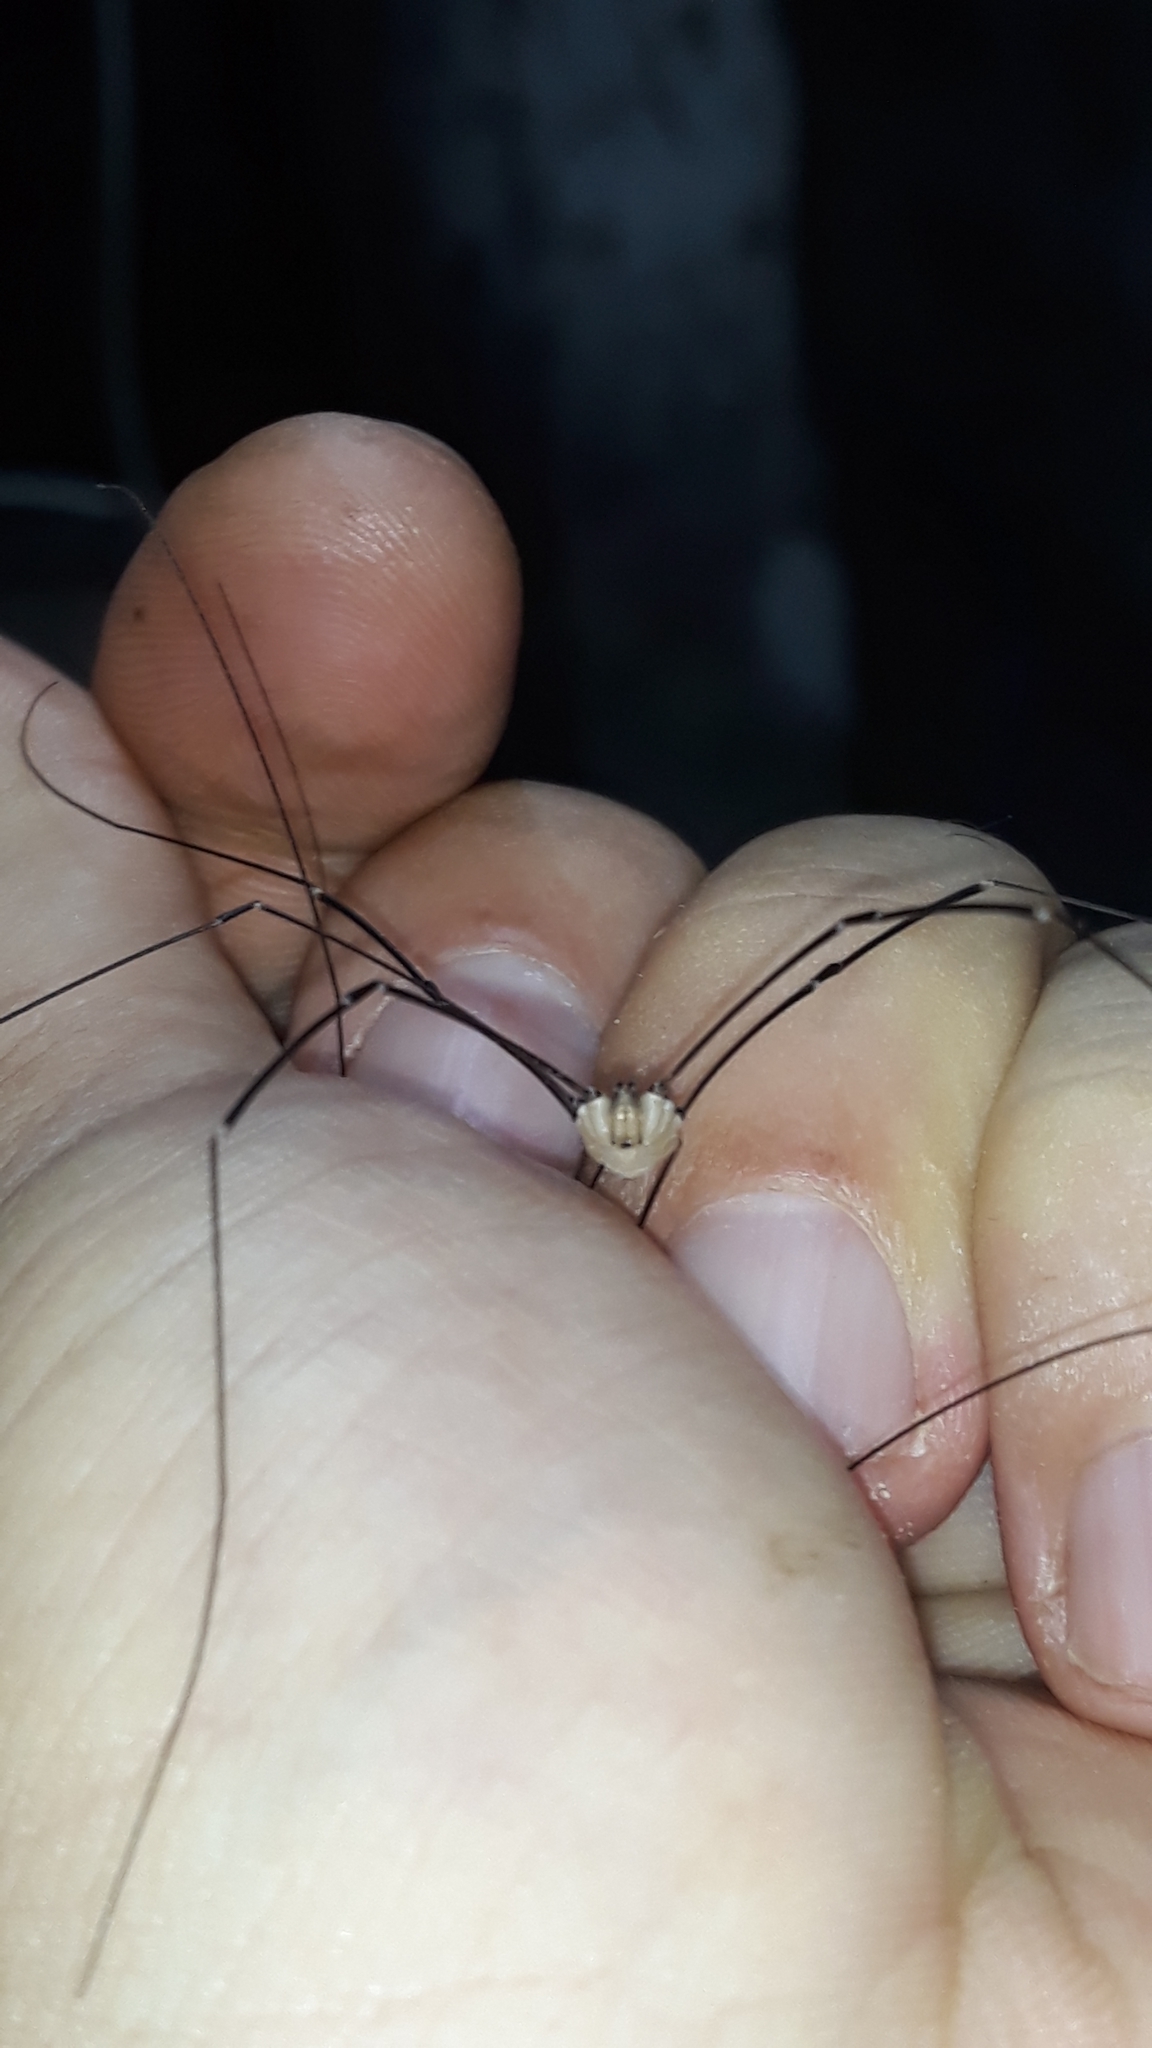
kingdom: Animalia
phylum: Arthropoda
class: Arachnida
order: Opiliones
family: Sclerosomatidae
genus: Leiobunum
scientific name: Leiobunum limbatum
